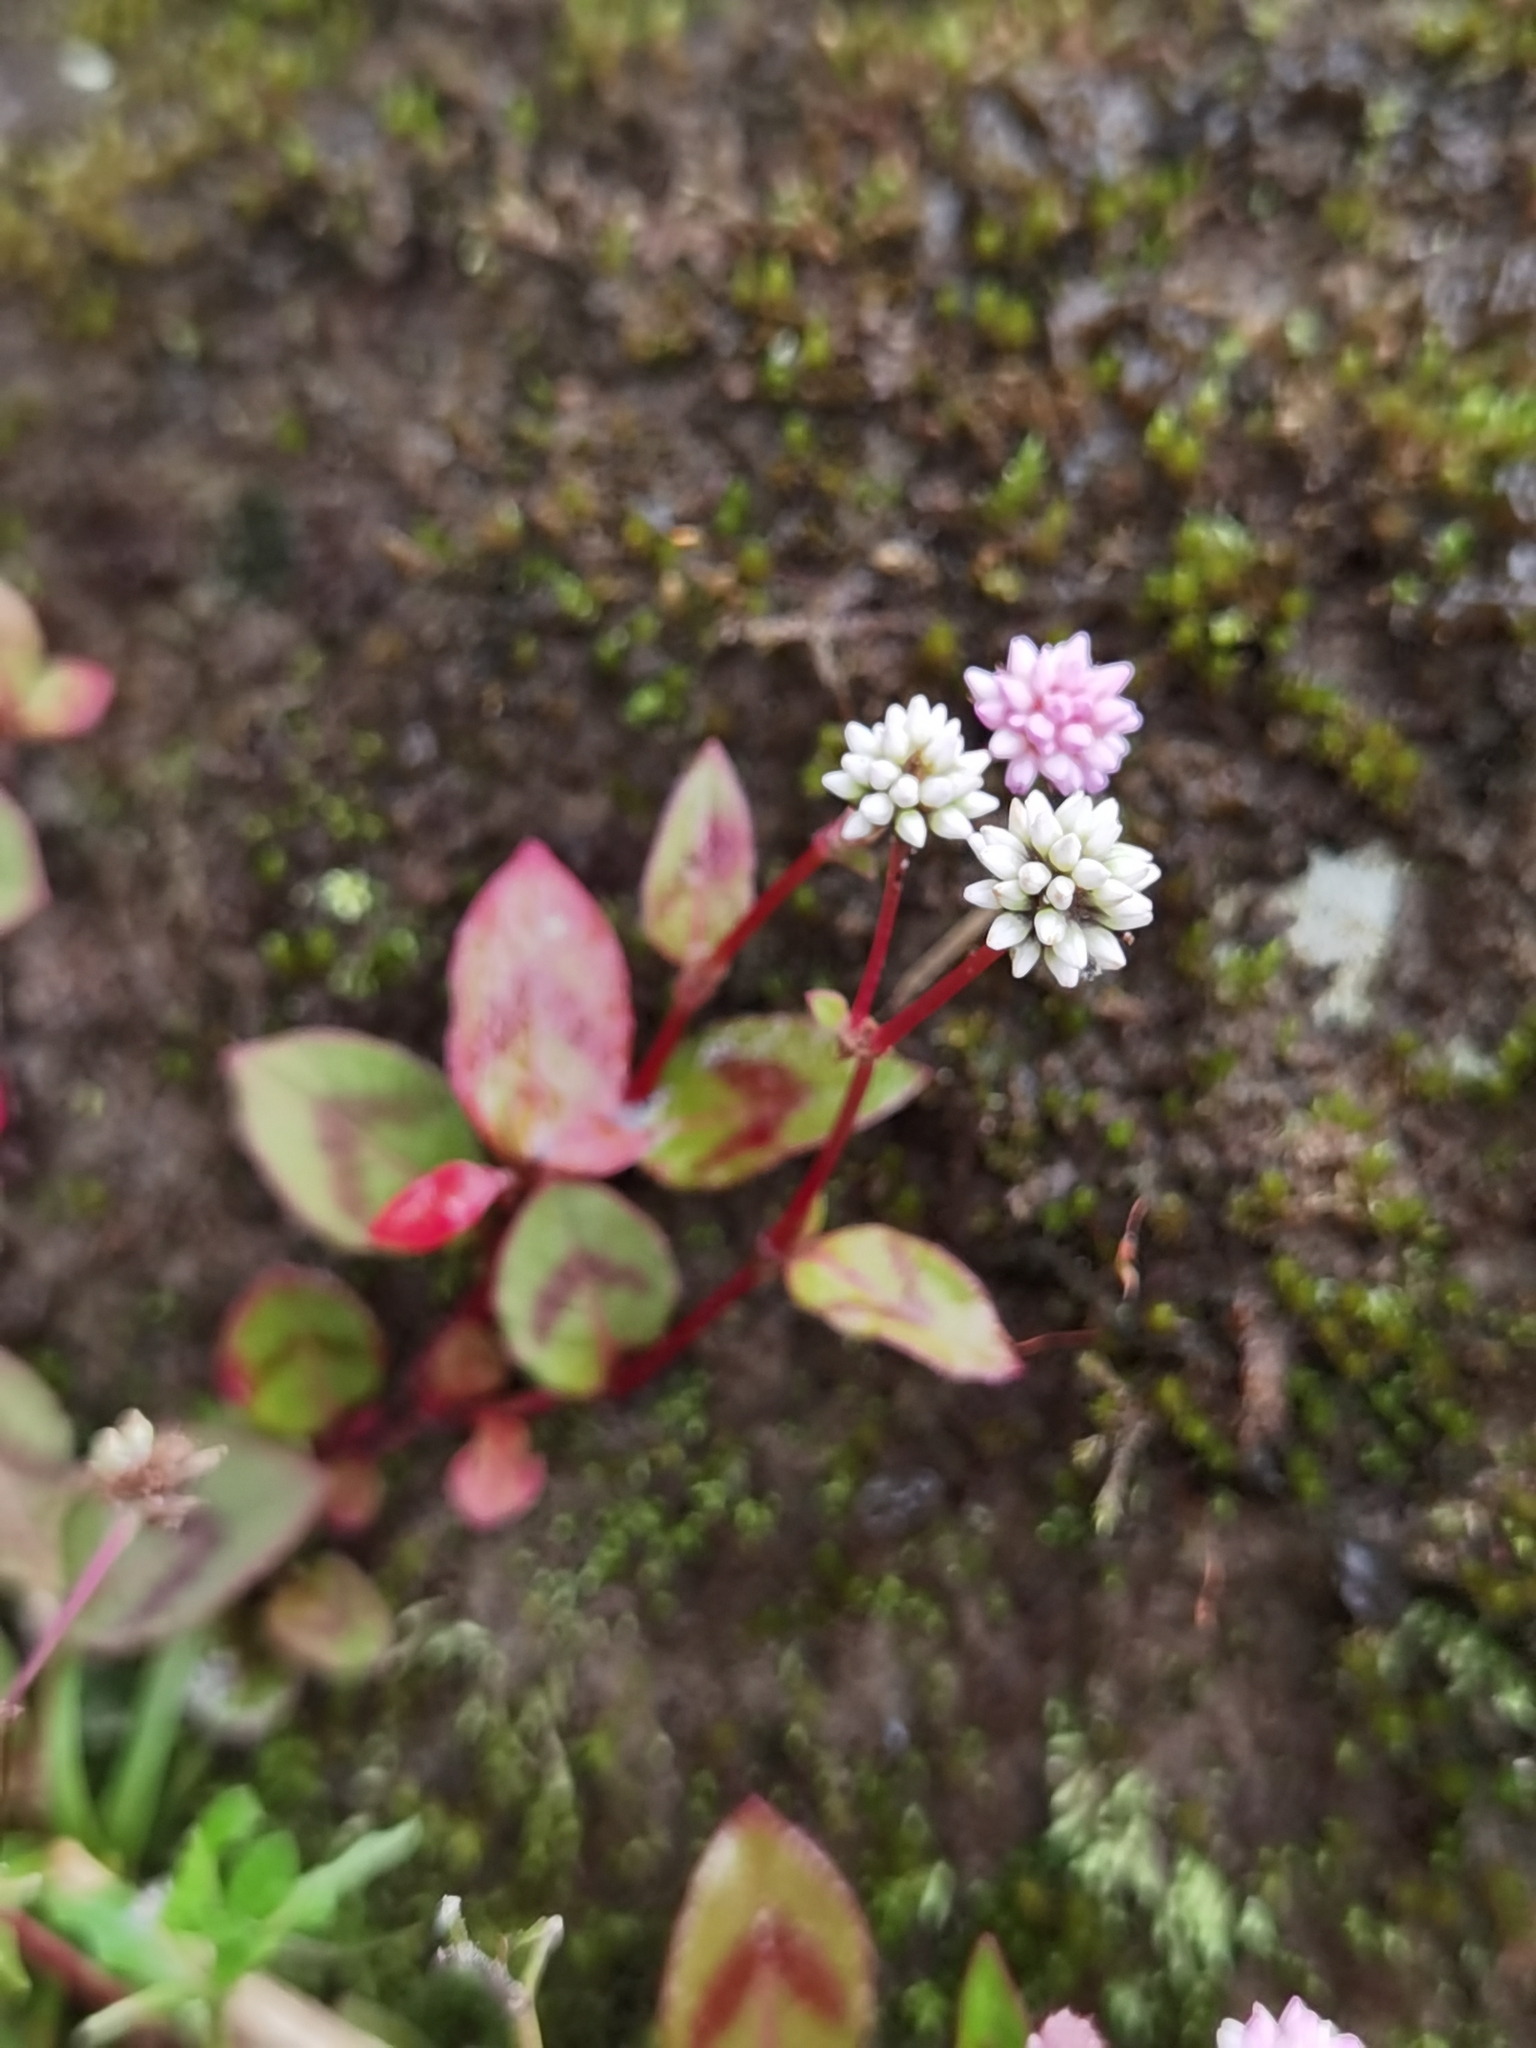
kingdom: Plantae
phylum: Tracheophyta
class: Magnoliopsida
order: Caryophyllales
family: Polygonaceae
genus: Persicaria
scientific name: Persicaria capitata
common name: Pinkhead smartweed
